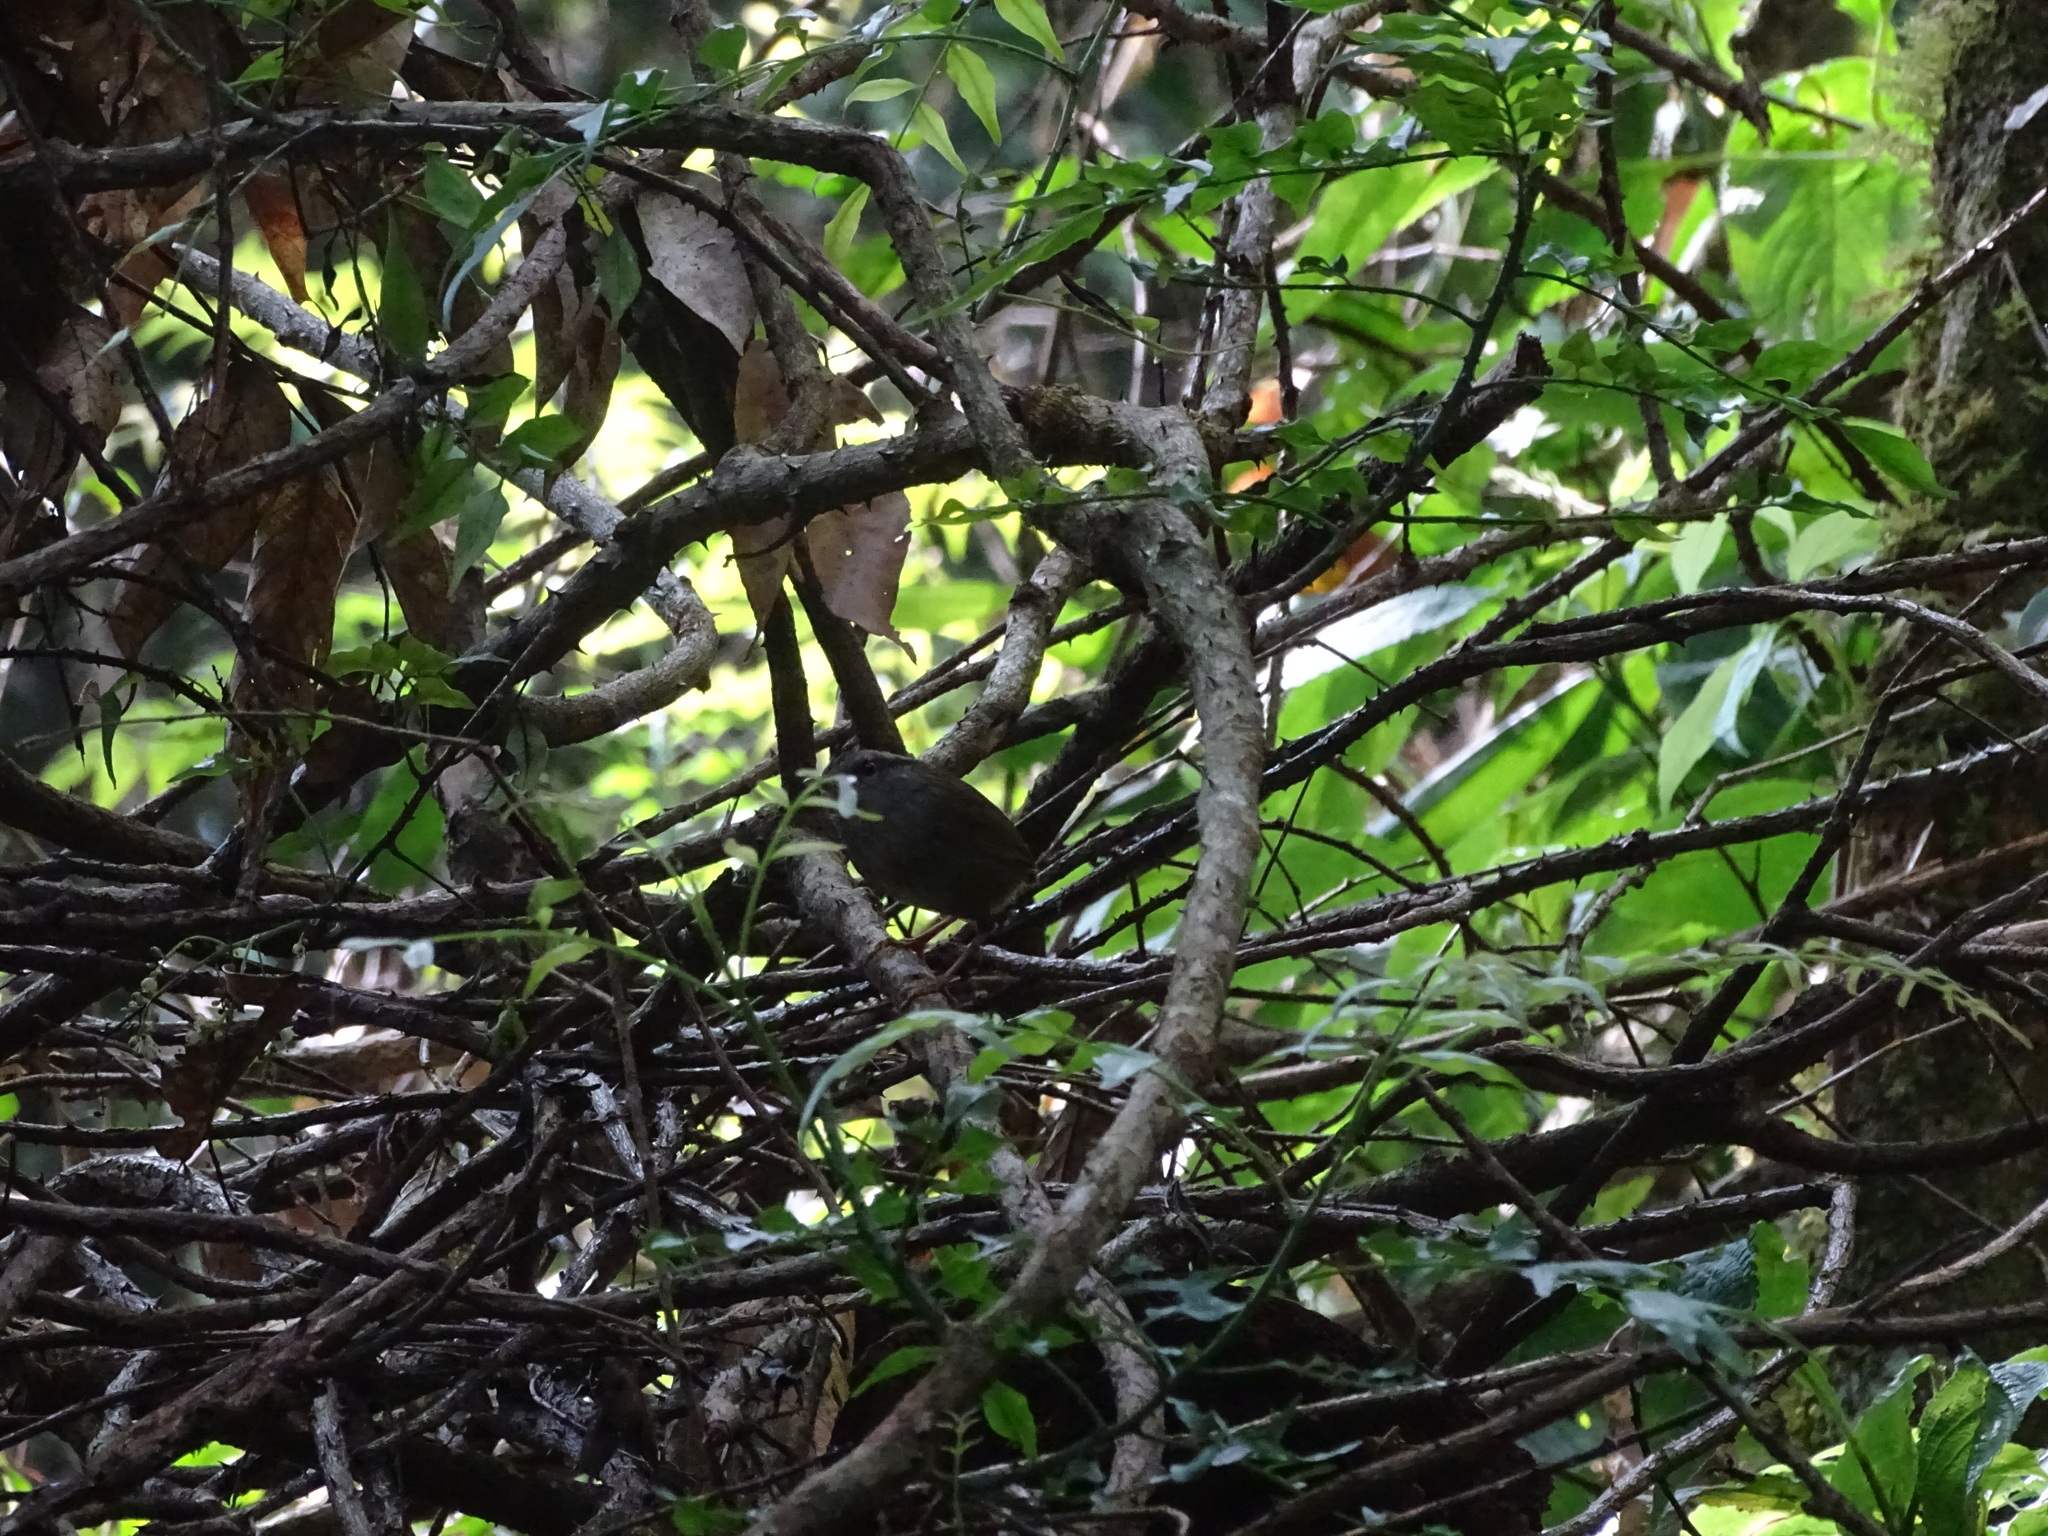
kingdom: Animalia
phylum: Chordata
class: Aves
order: Passeriformes
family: Cettiidae
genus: Tesia
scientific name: Tesia superciliaris
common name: Javan tesia
